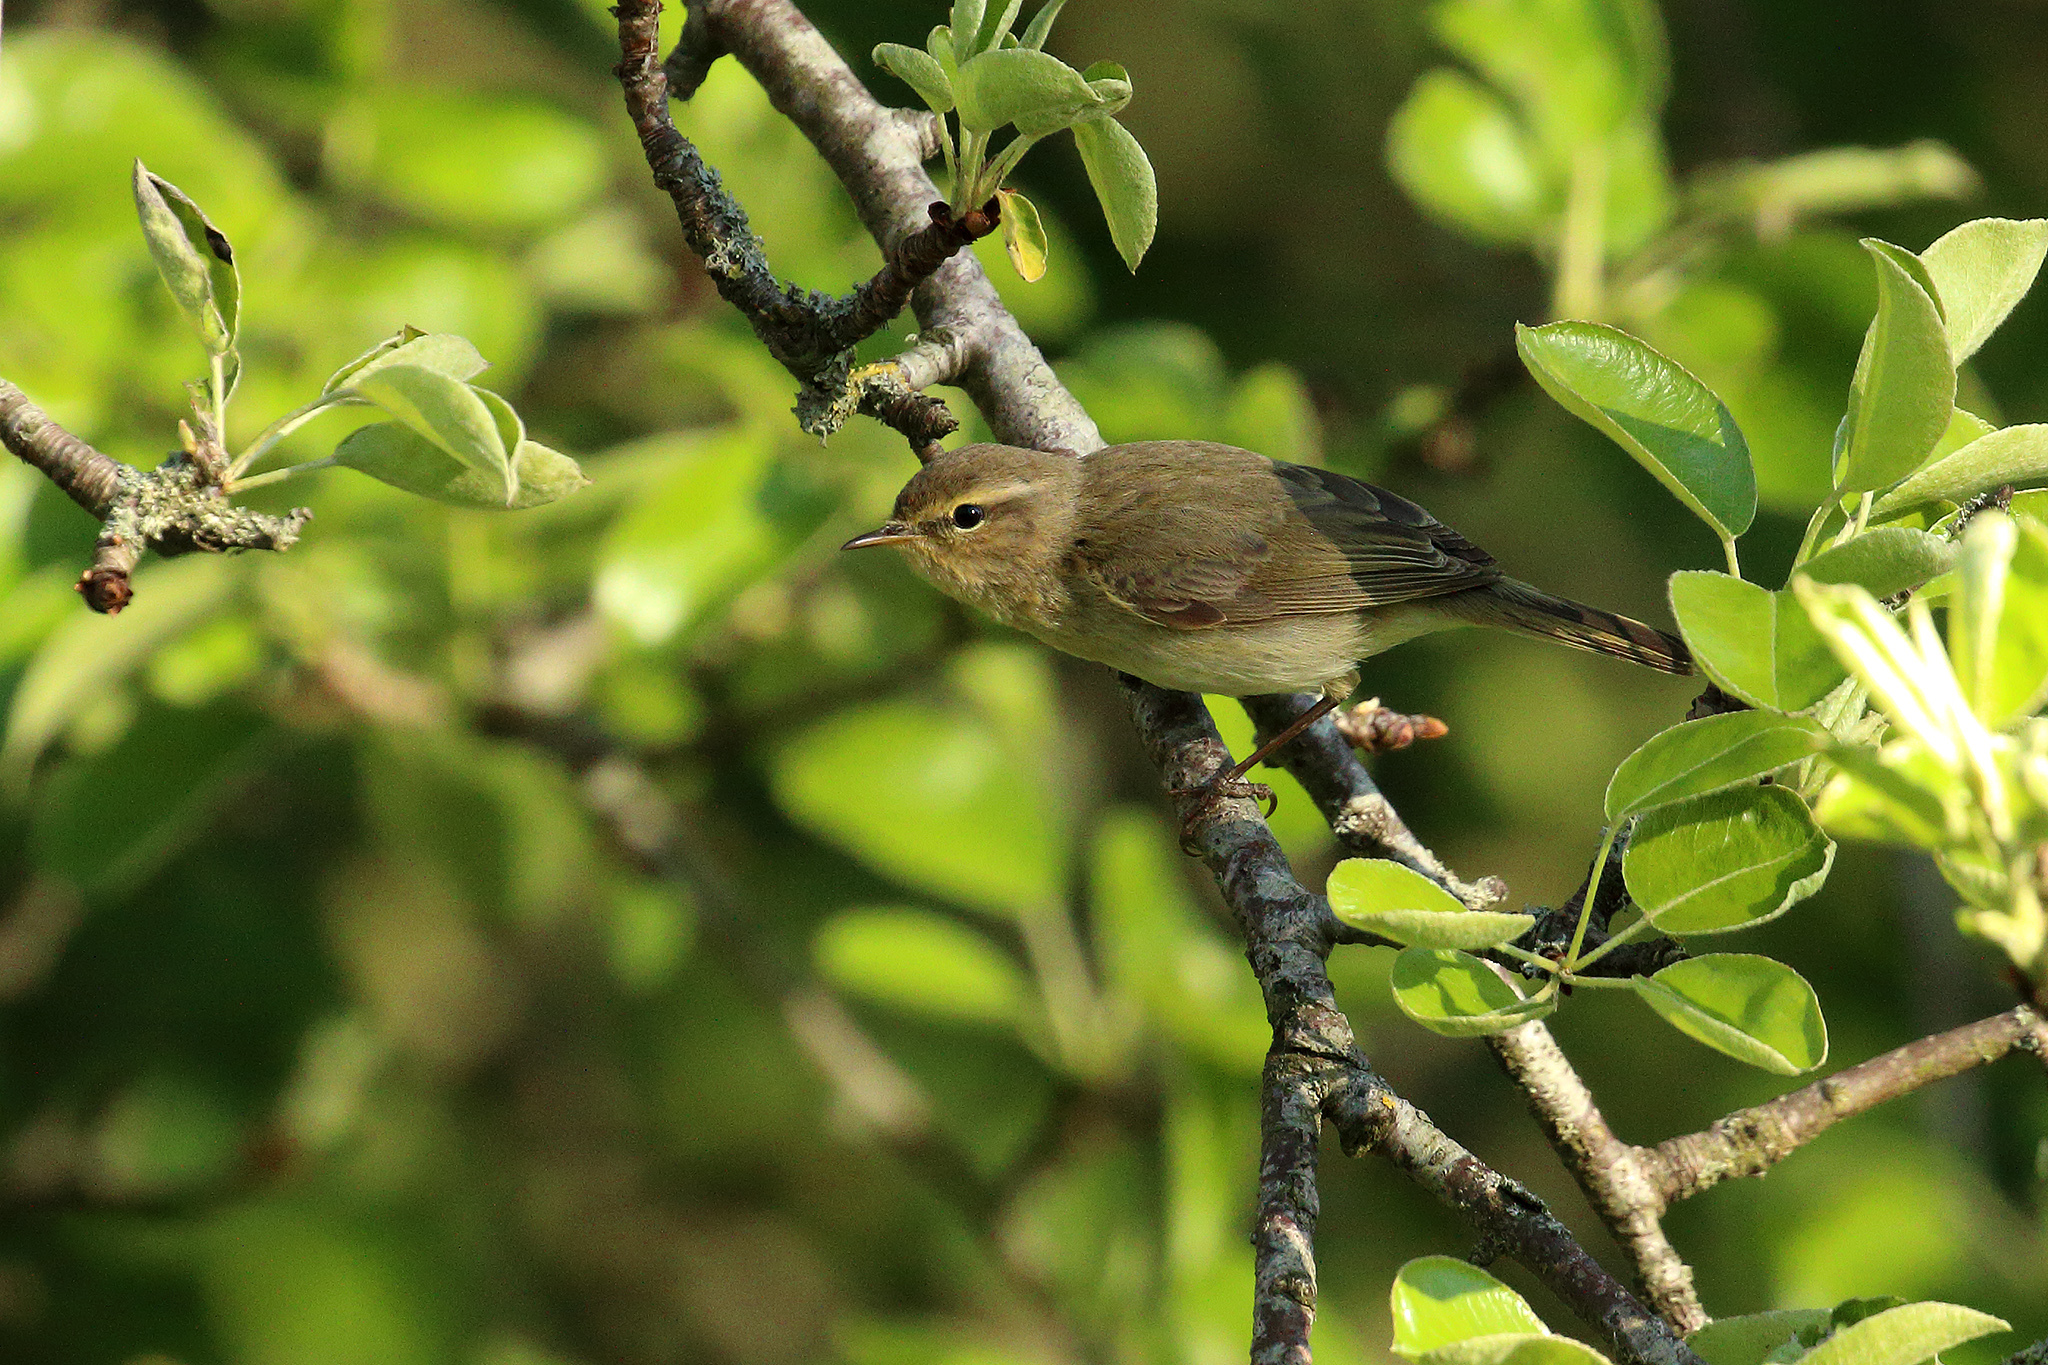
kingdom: Animalia
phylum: Chordata
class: Aves
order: Passeriformes
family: Phylloscopidae
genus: Phylloscopus
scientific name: Phylloscopus collybita
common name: Common chiffchaff
